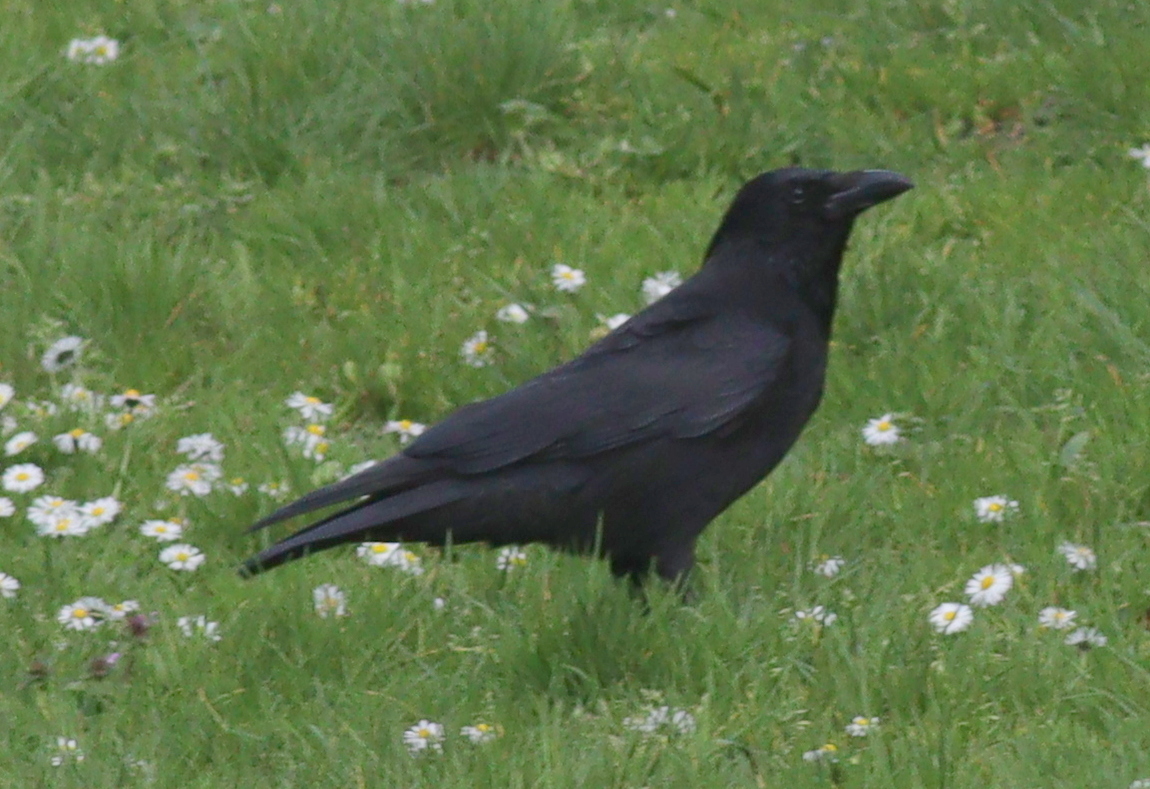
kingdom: Animalia
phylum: Chordata
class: Aves
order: Passeriformes
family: Corvidae
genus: Corvus
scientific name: Corvus corone
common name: Carrion crow
